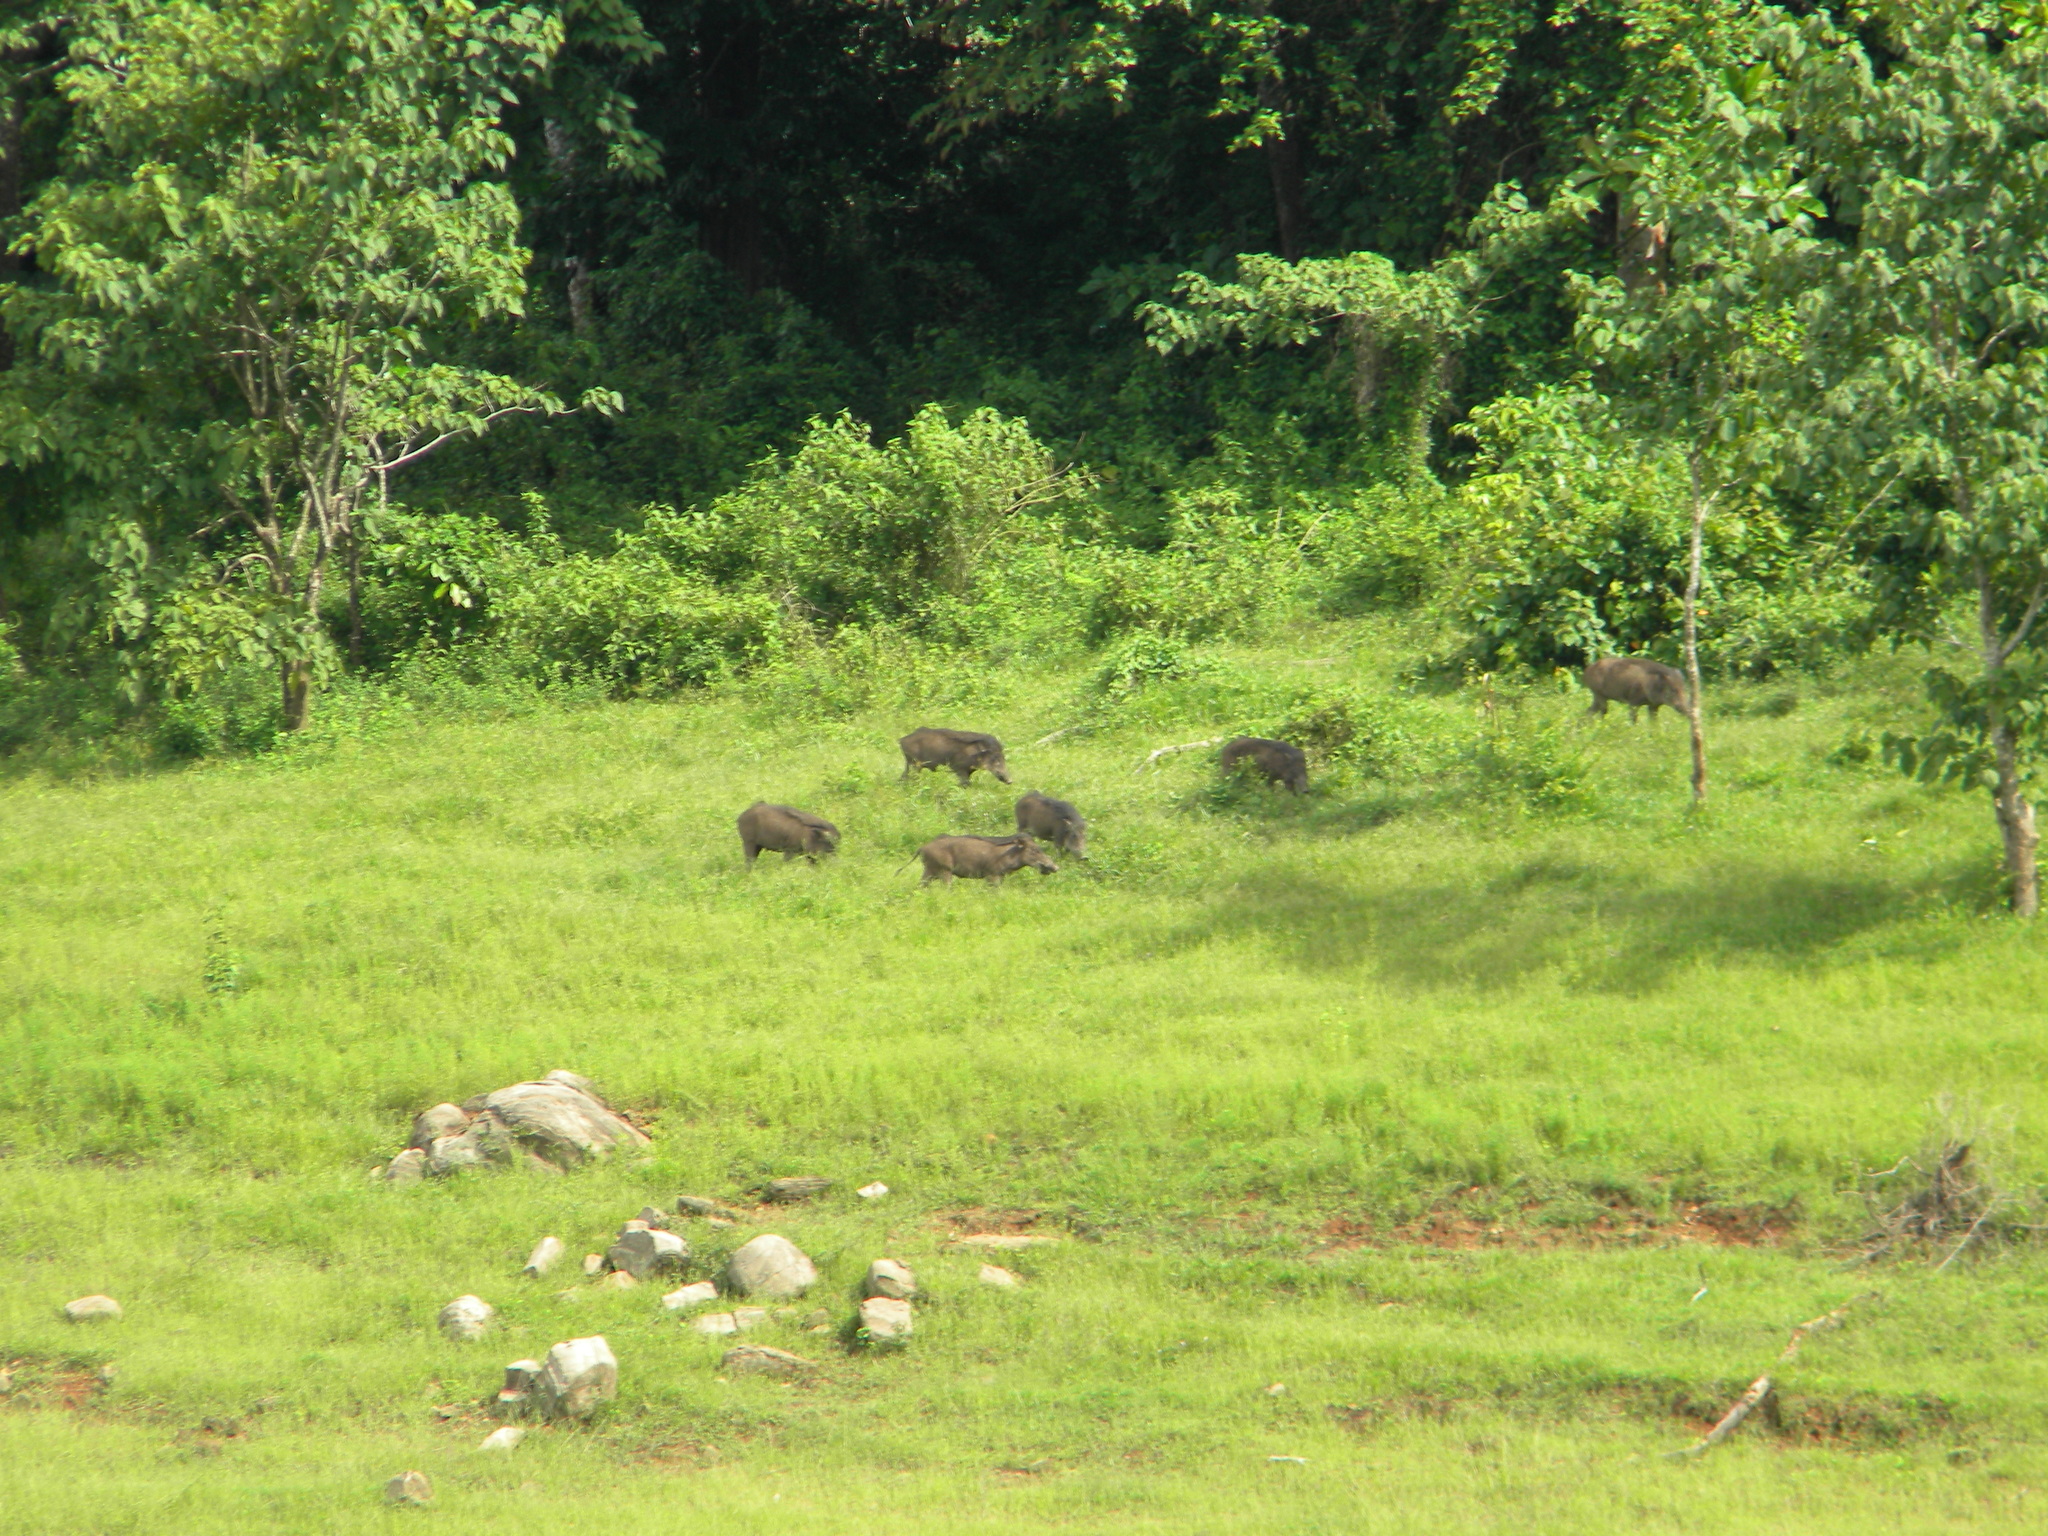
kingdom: Animalia
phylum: Chordata
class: Mammalia
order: Artiodactyla
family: Suidae
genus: Sus
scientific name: Sus scrofa
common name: Wild boar
